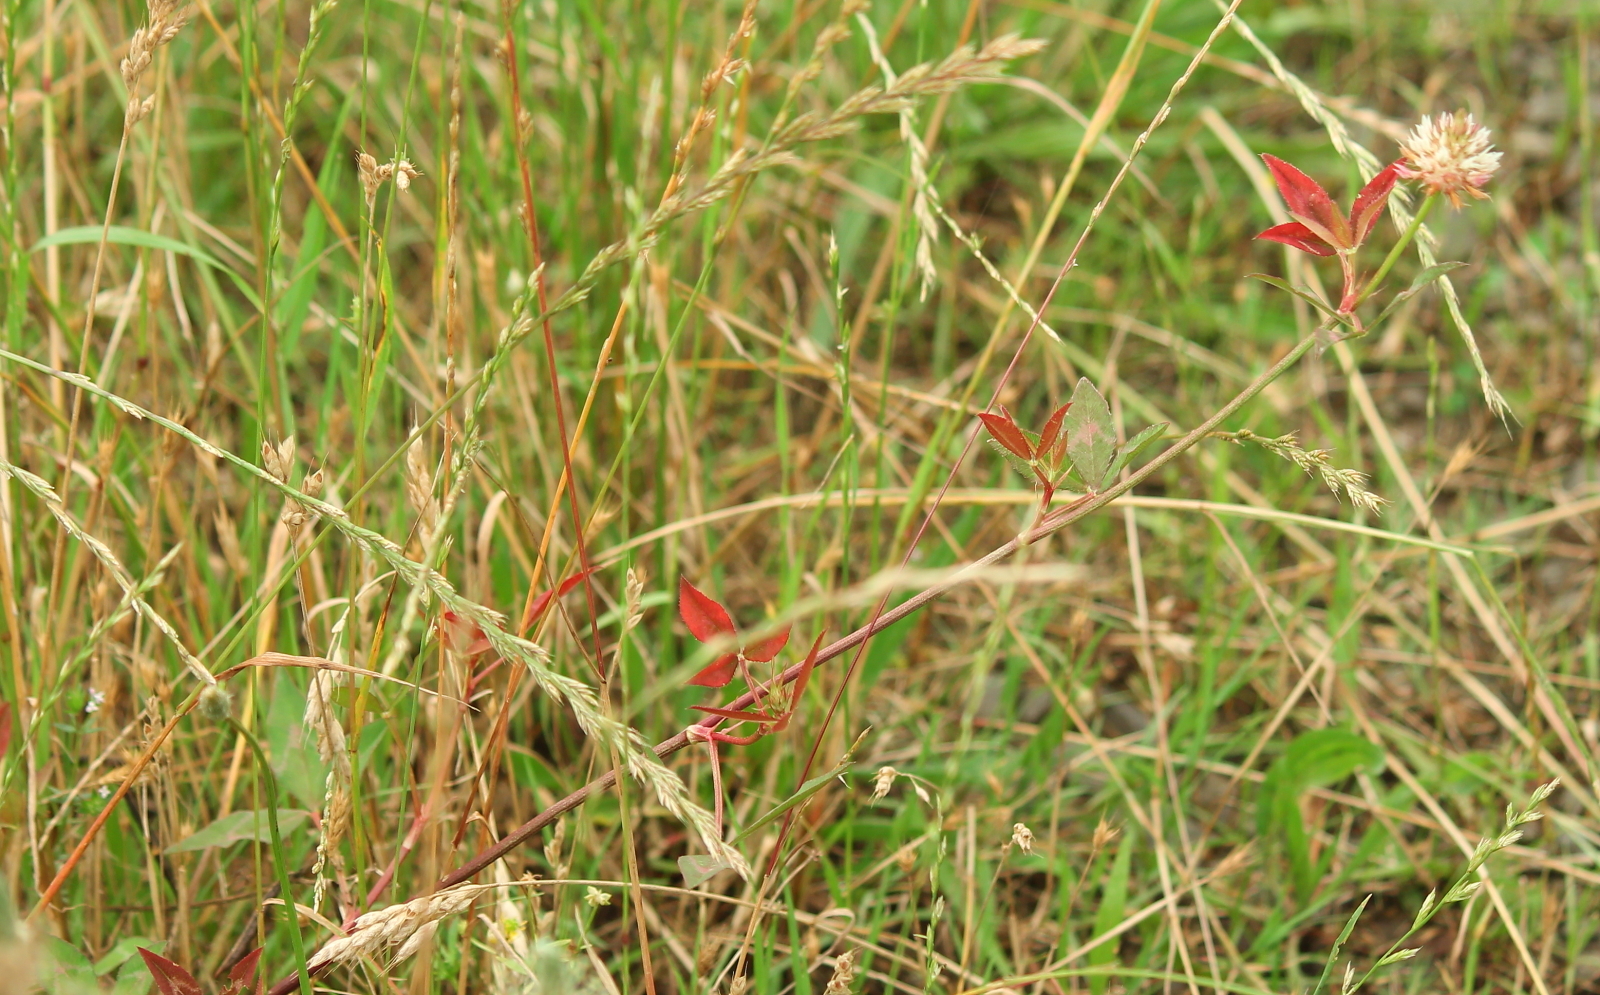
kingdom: Plantae
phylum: Tracheophyta
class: Magnoliopsida
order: Fabales
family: Fabaceae
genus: Trifolium
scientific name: Trifolium vesiculosum
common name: Arrowleaf clover
